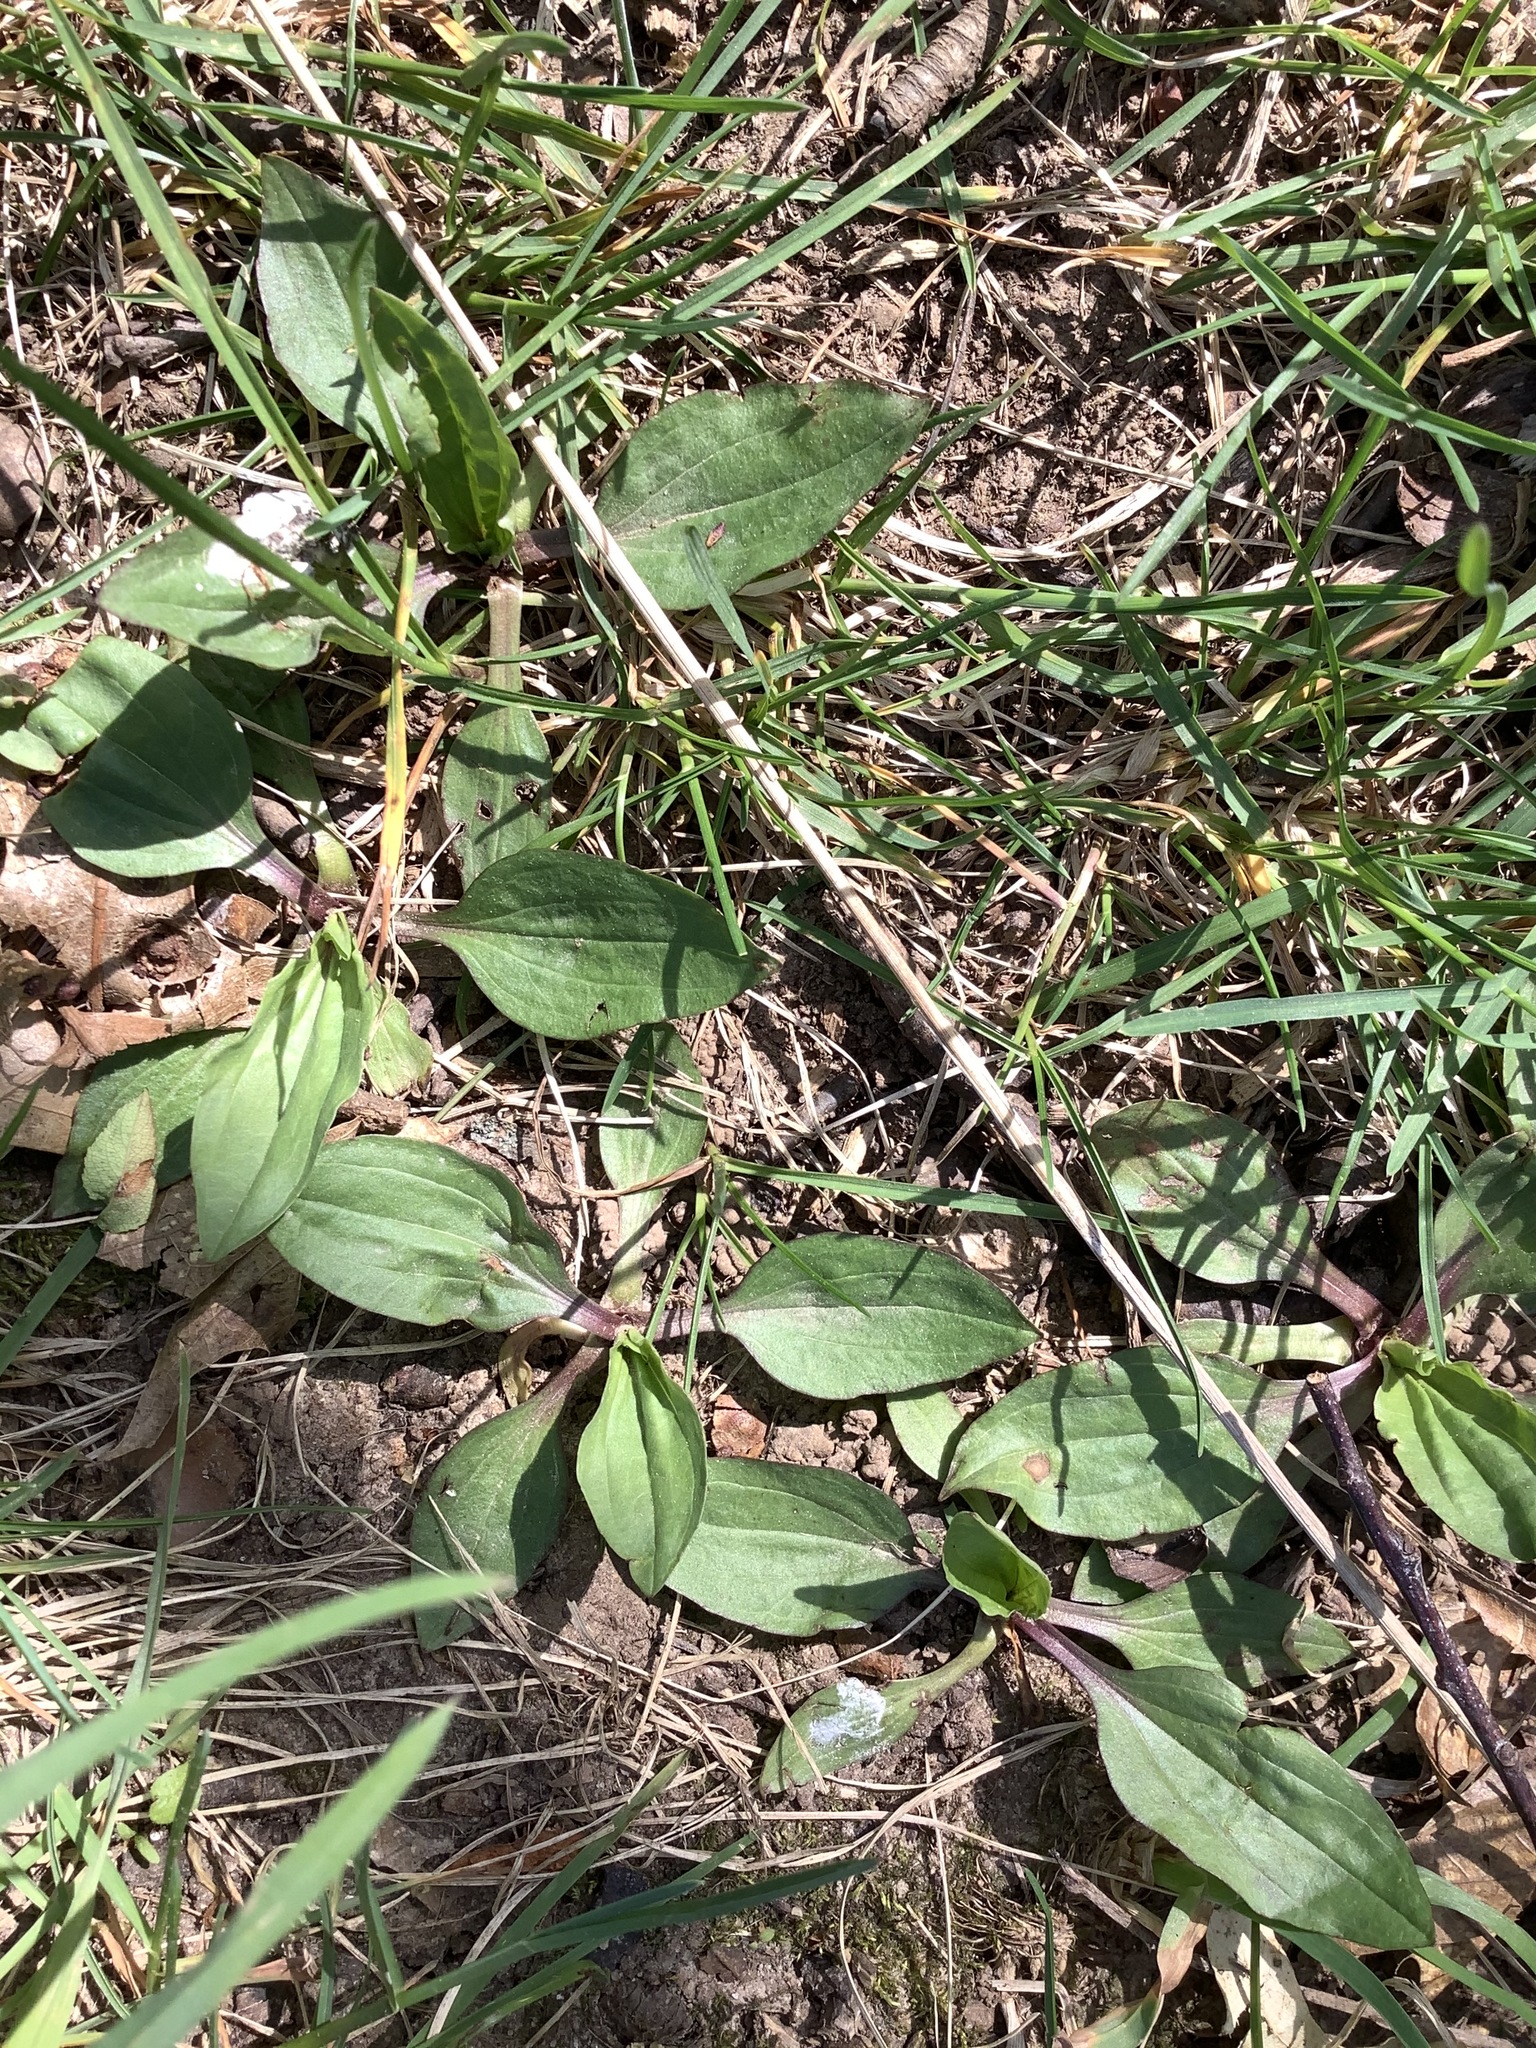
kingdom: Plantae
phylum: Tracheophyta
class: Magnoliopsida
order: Lamiales
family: Plantaginaceae
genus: Plantago
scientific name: Plantago rugelii
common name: American plantain
